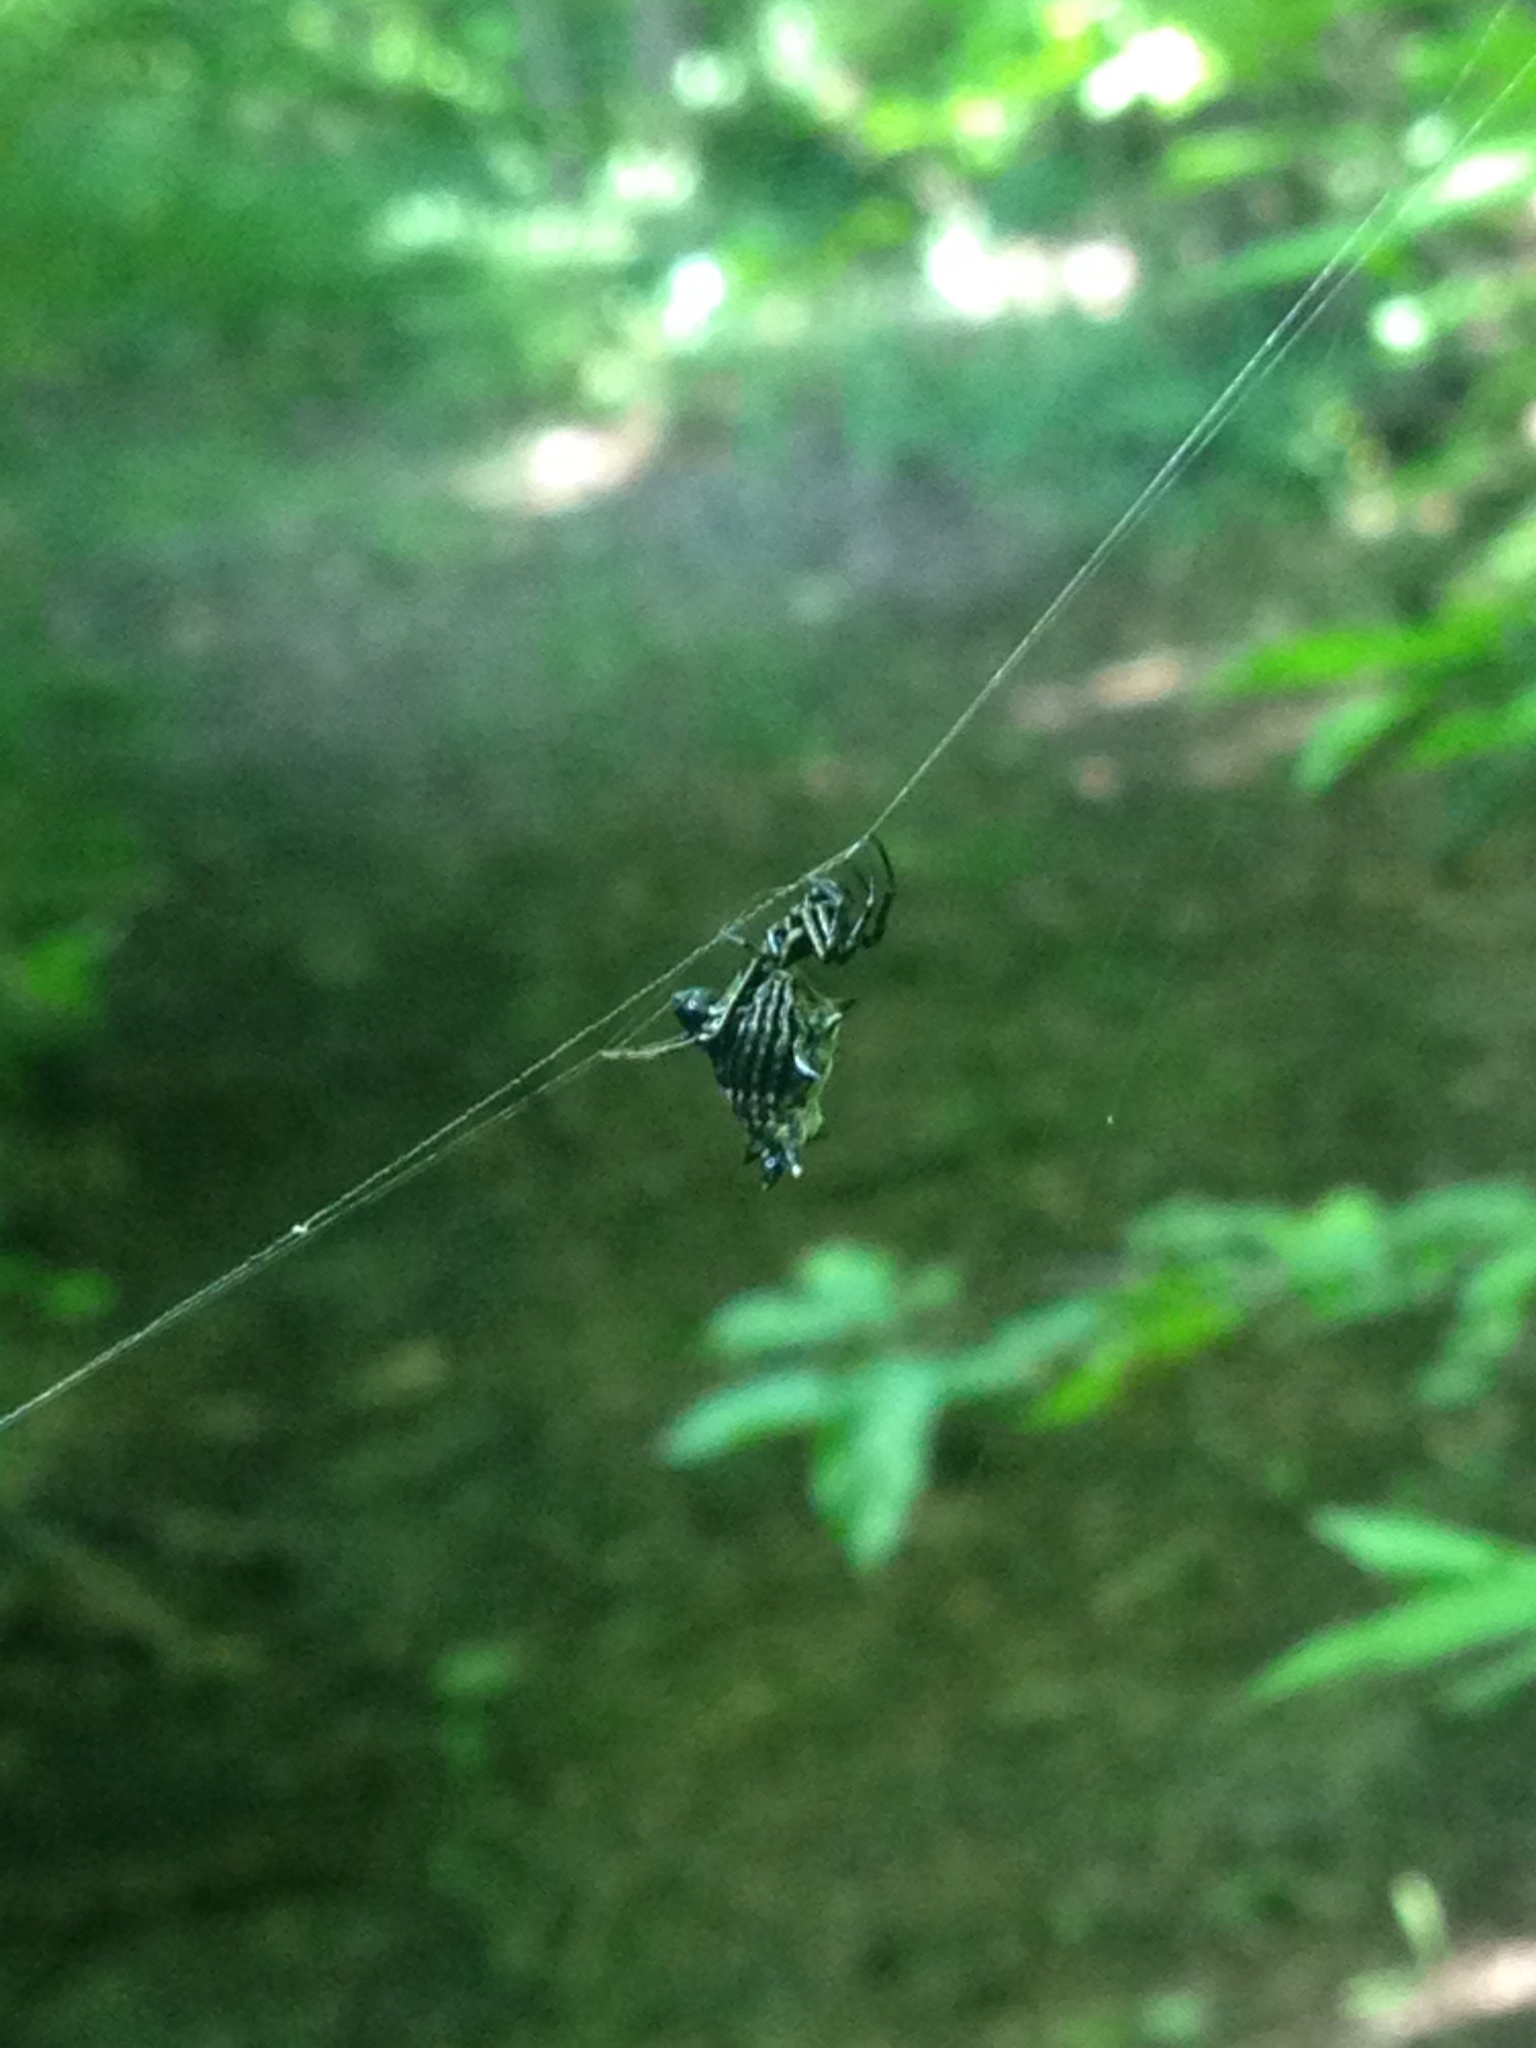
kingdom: Animalia
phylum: Arthropoda
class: Arachnida
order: Araneae
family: Araneidae
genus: Micrathena
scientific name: Micrathena gracilis
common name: Orb weavers
